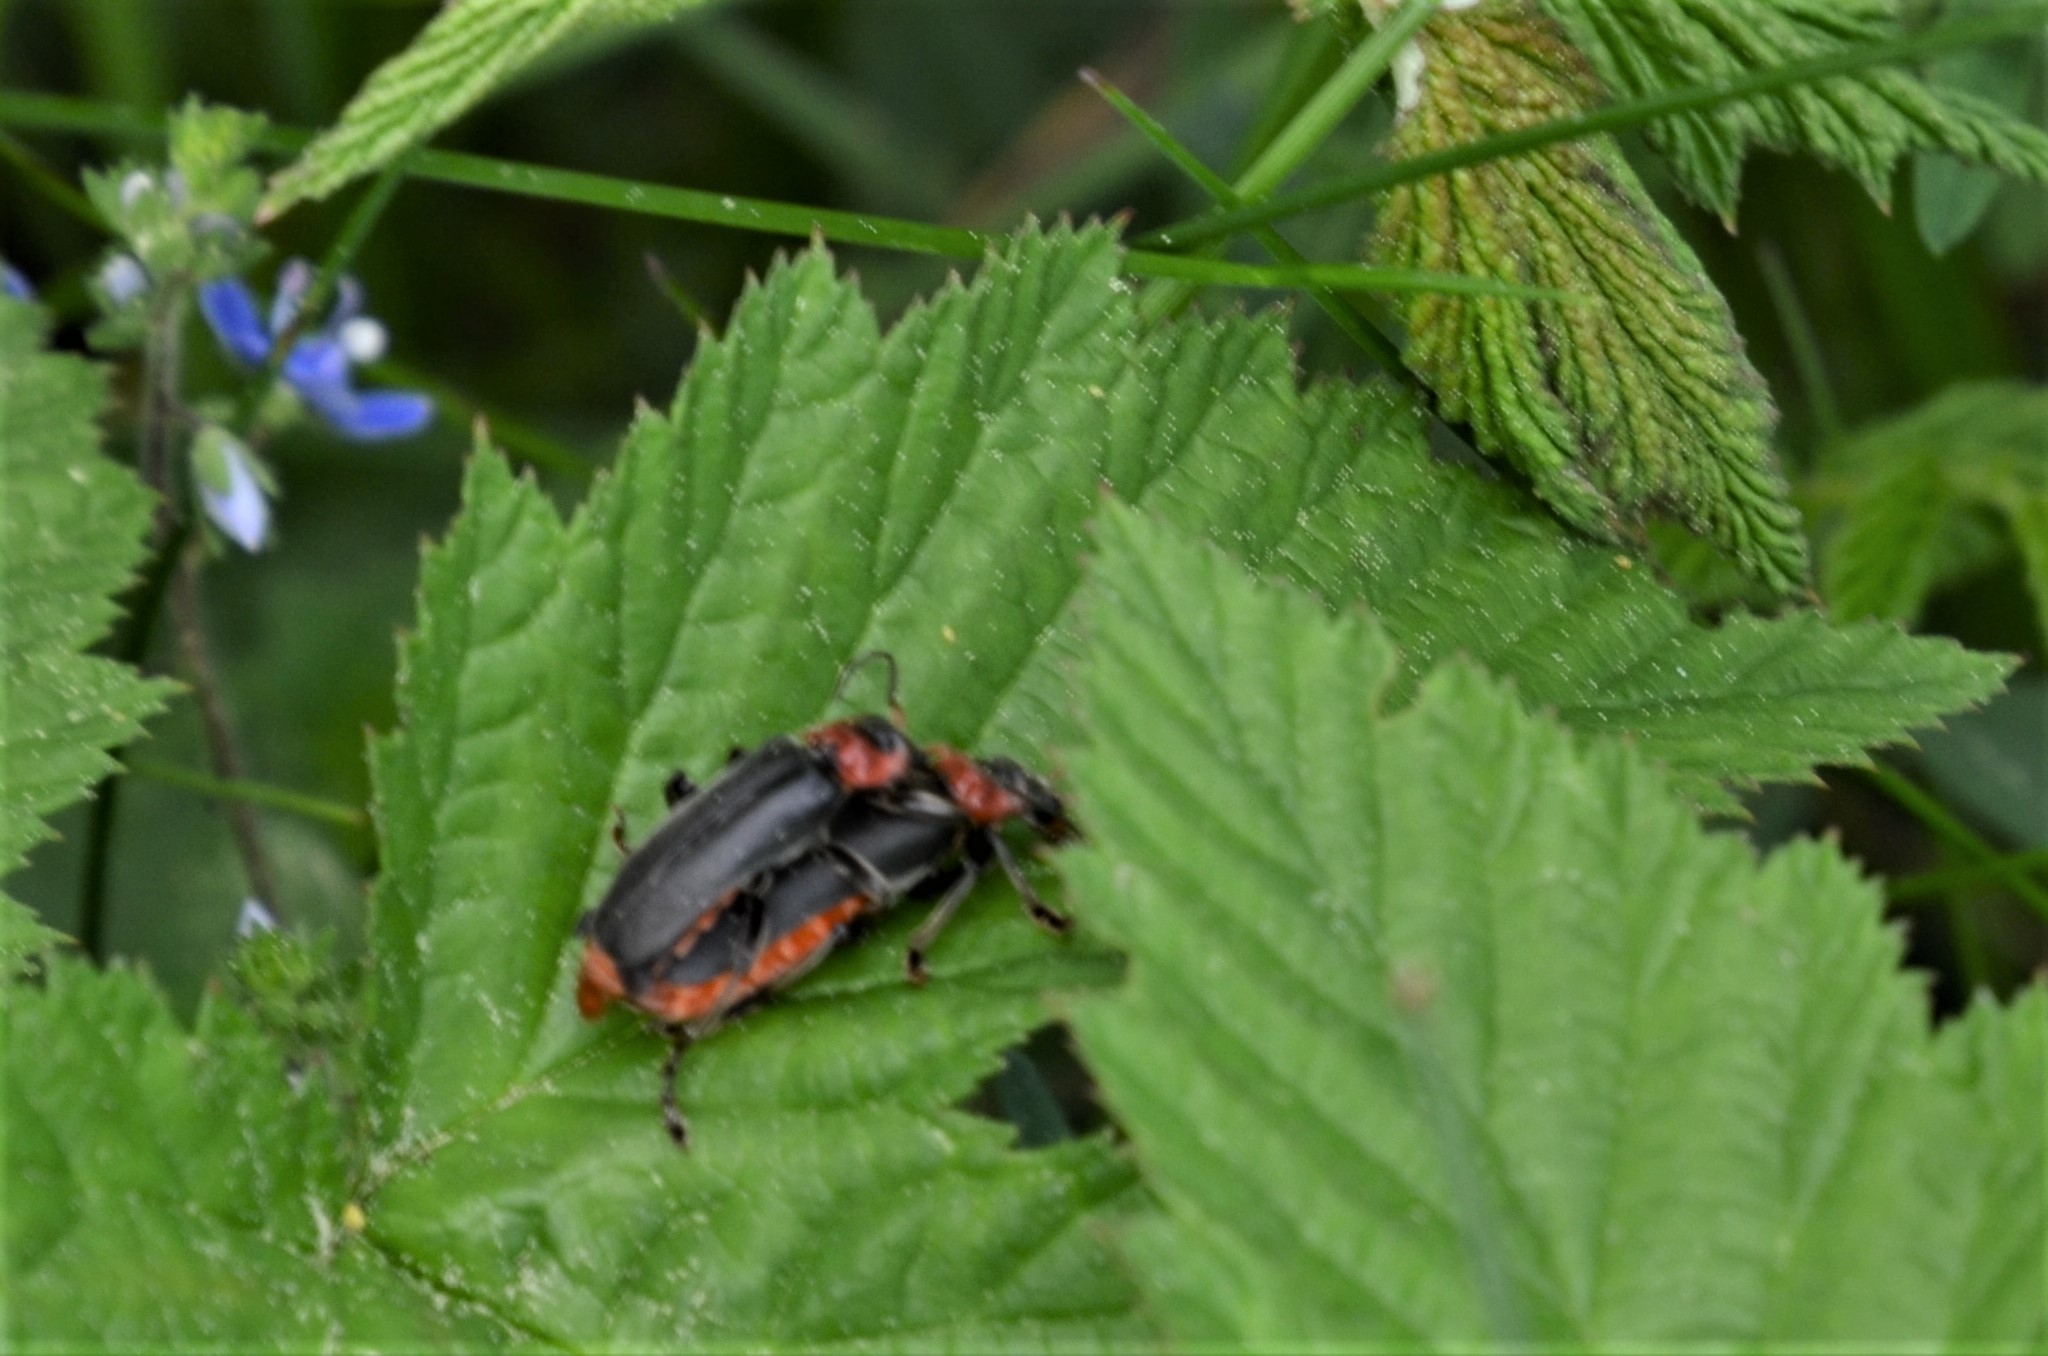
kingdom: Animalia
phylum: Arthropoda
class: Insecta
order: Coleoptera
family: Cantharidae
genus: Cantharis
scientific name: Cantharis fusca
